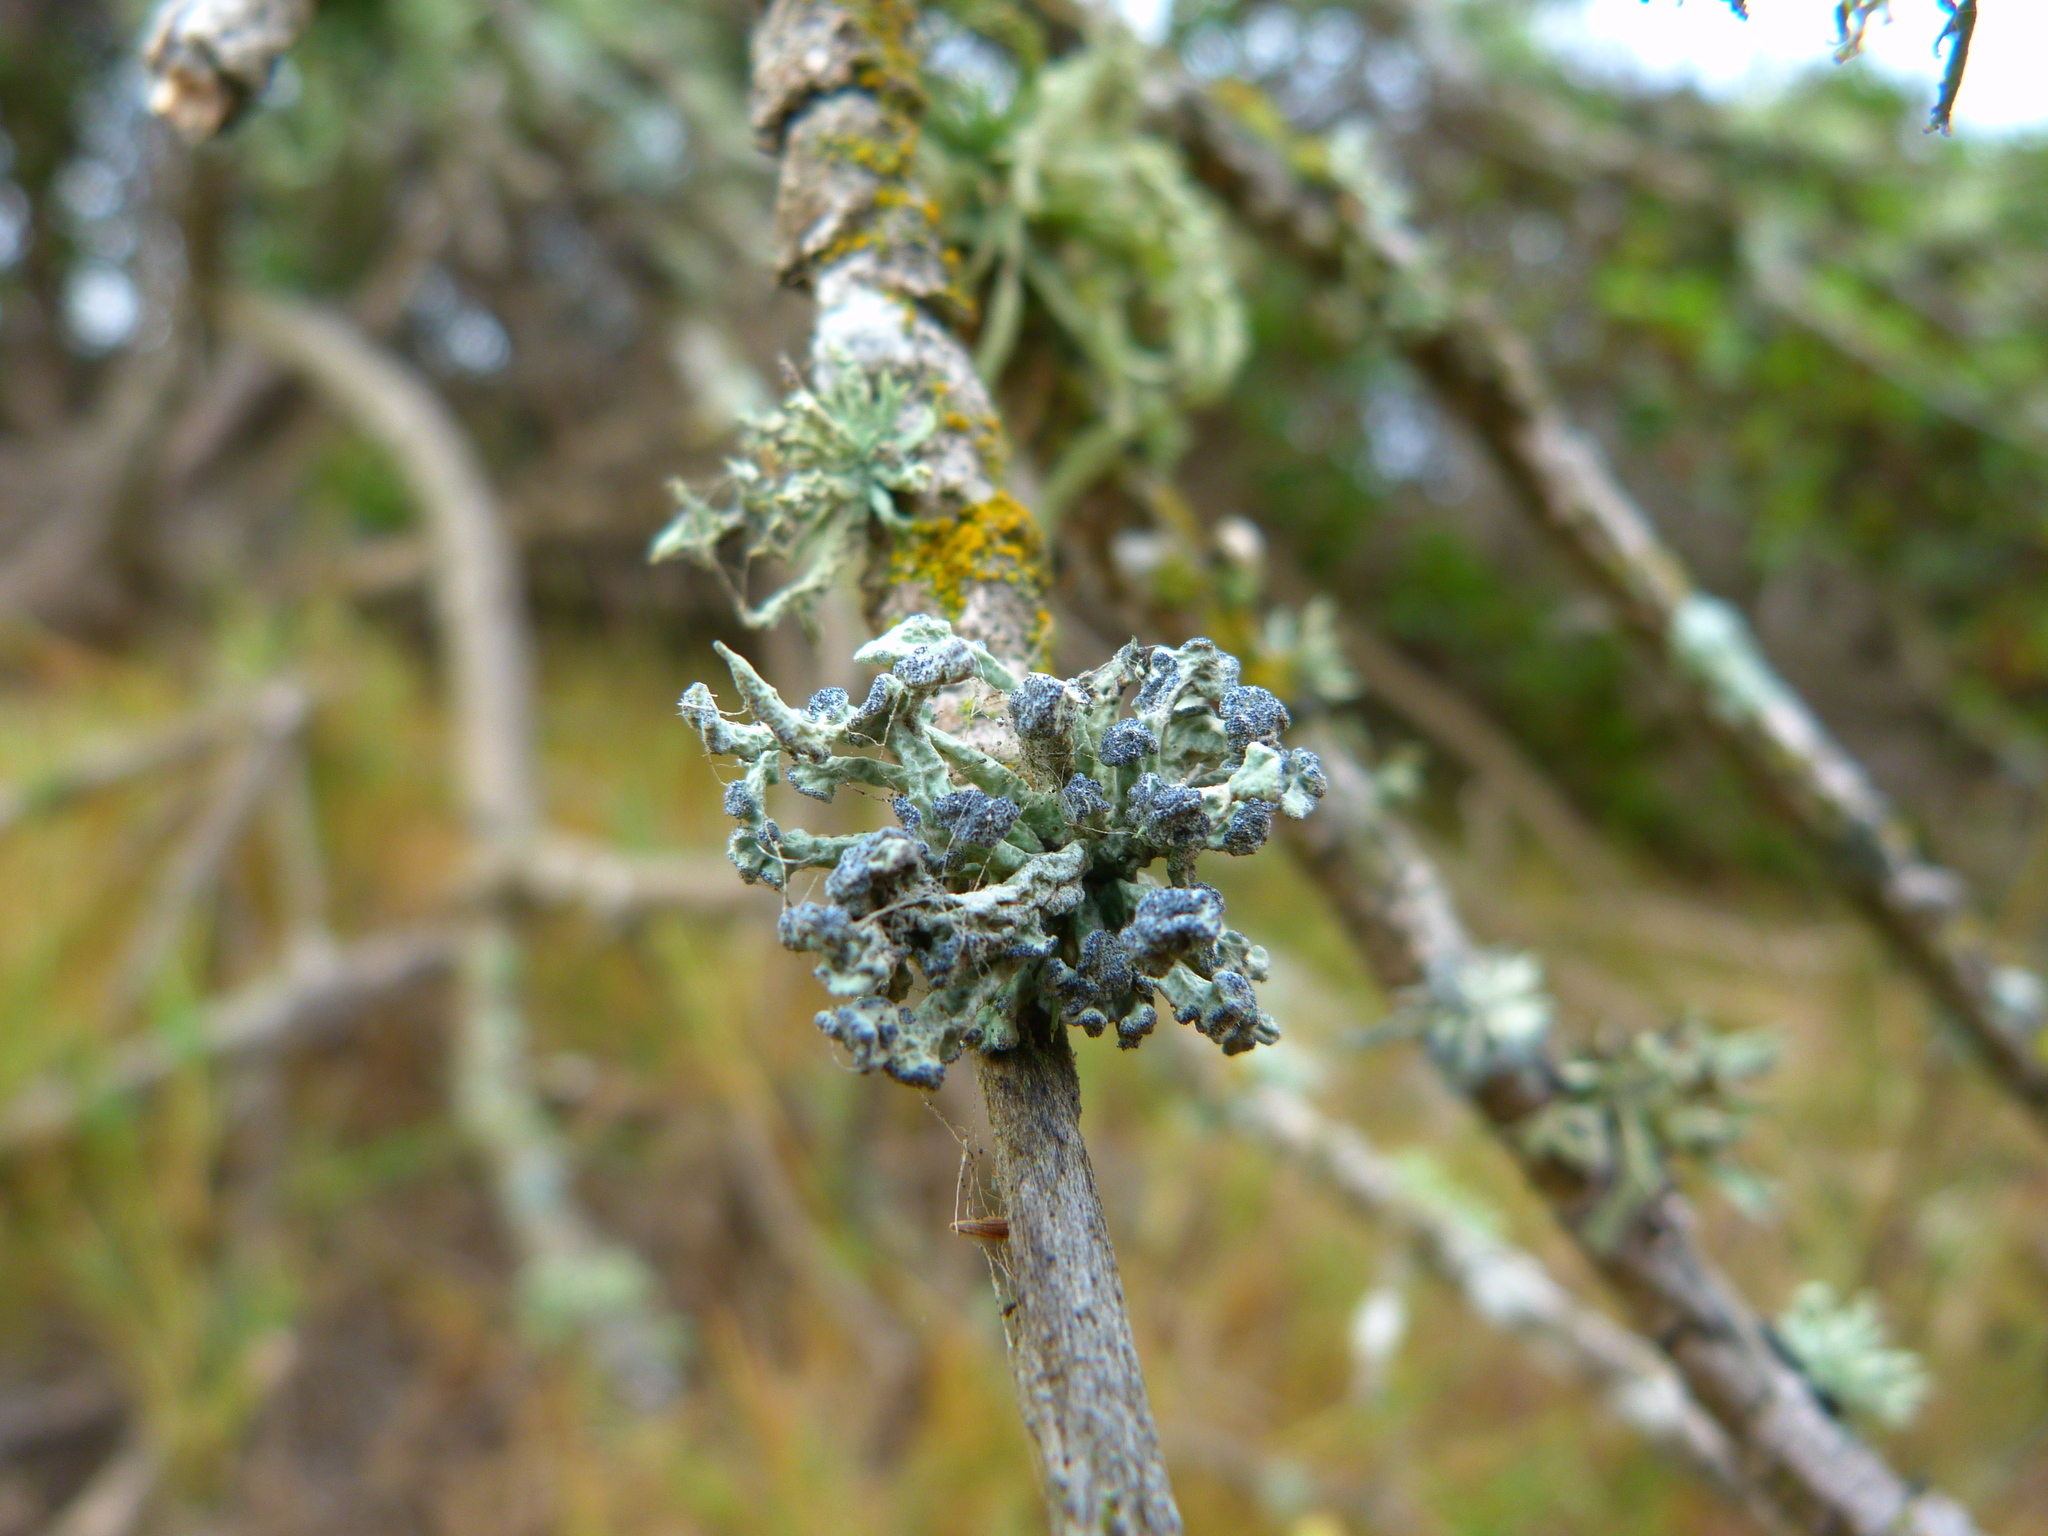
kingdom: Fungi
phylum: Ascomycota
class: Lecanoromycetes
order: Lecanorales
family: Ramalinaceae
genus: Niebla
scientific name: Niebla cephalota
